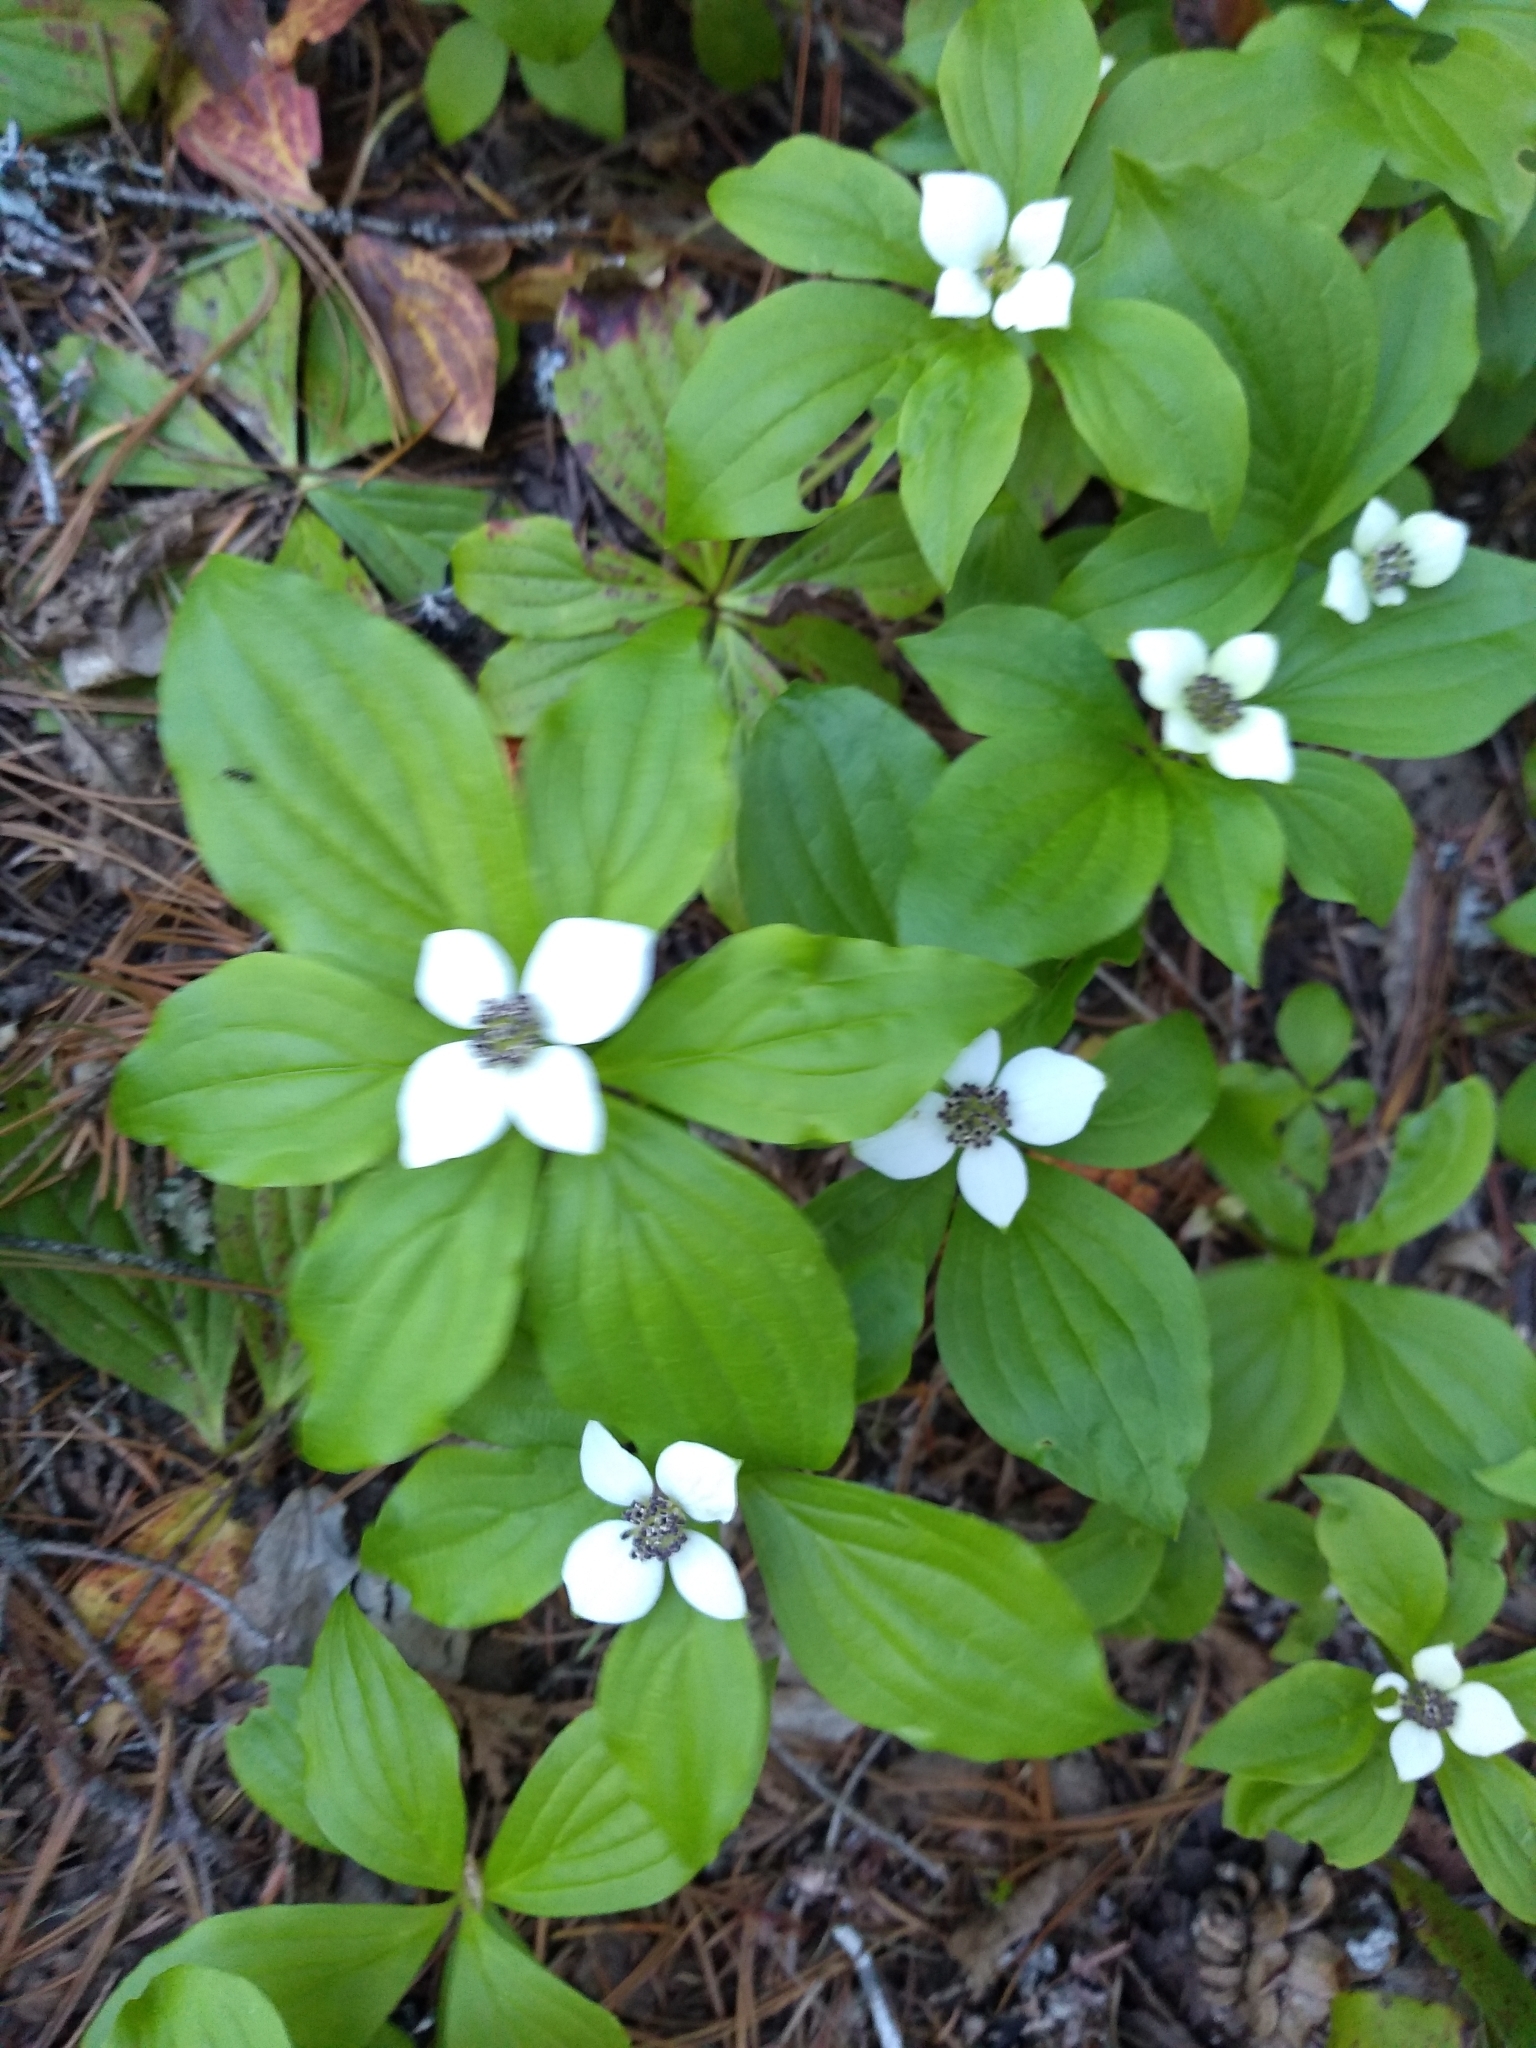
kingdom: Plantae
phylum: Tracheophyta
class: Magnoliopsida
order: Cornales
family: Cornaceae
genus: Cornus
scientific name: Cornus unalaschkensis
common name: Alaska bunchberry
